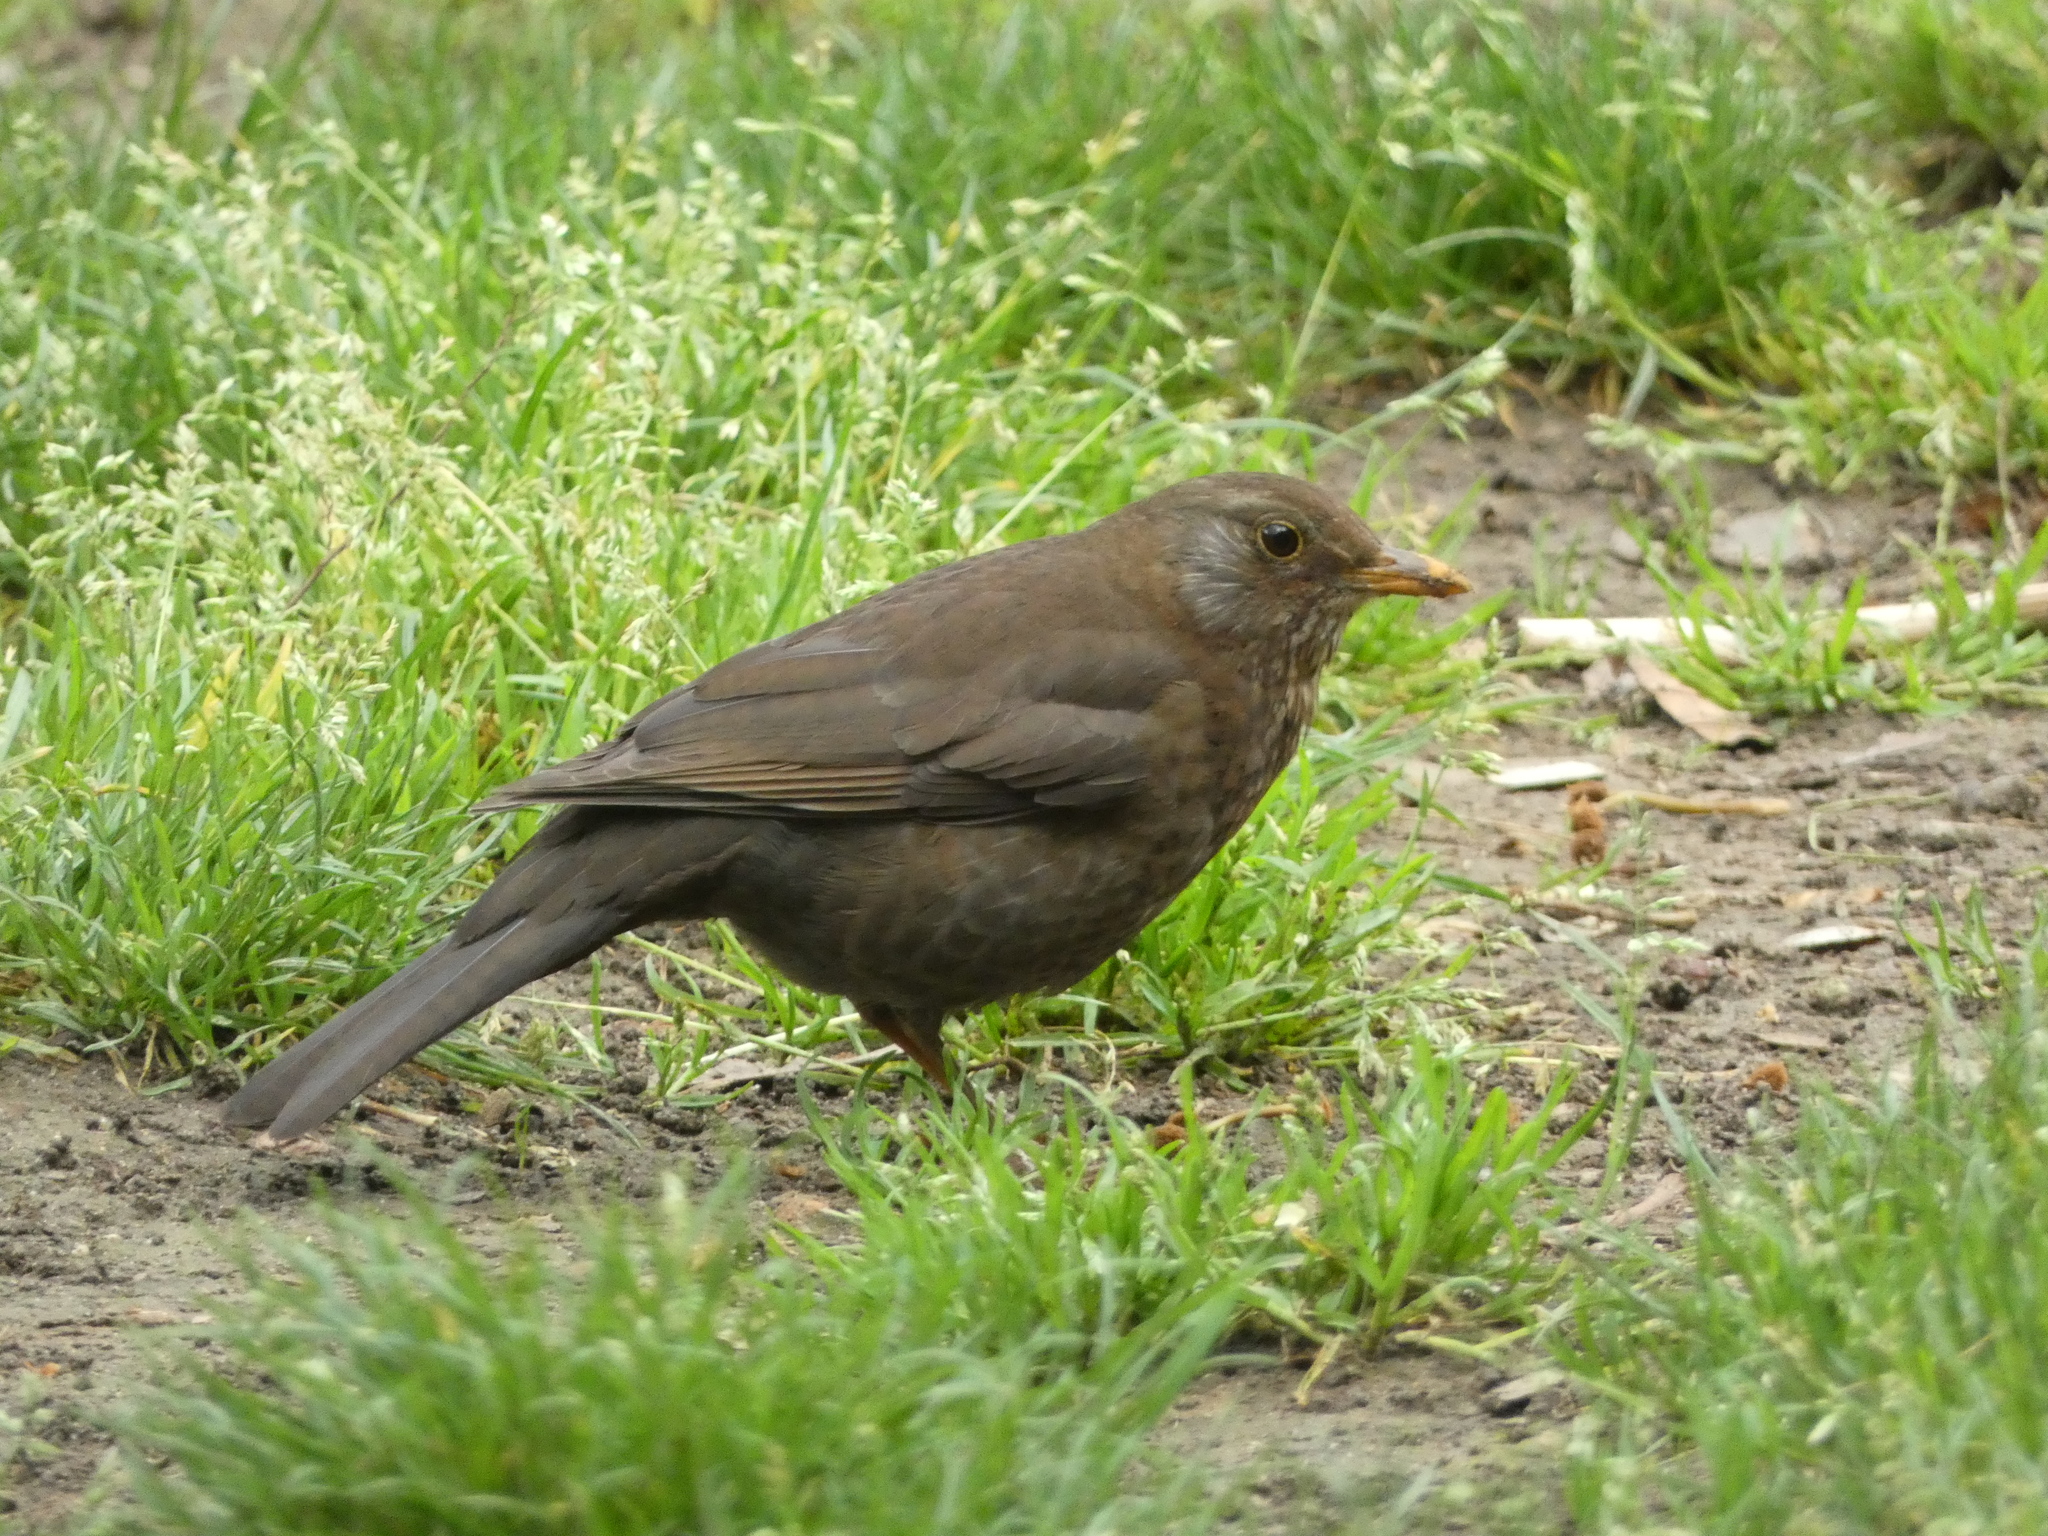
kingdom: Animalia
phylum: Chordata
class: Aves
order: Passeriformes
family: Turdidae
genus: Turdus
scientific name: Turdus merula
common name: Common blackbird
